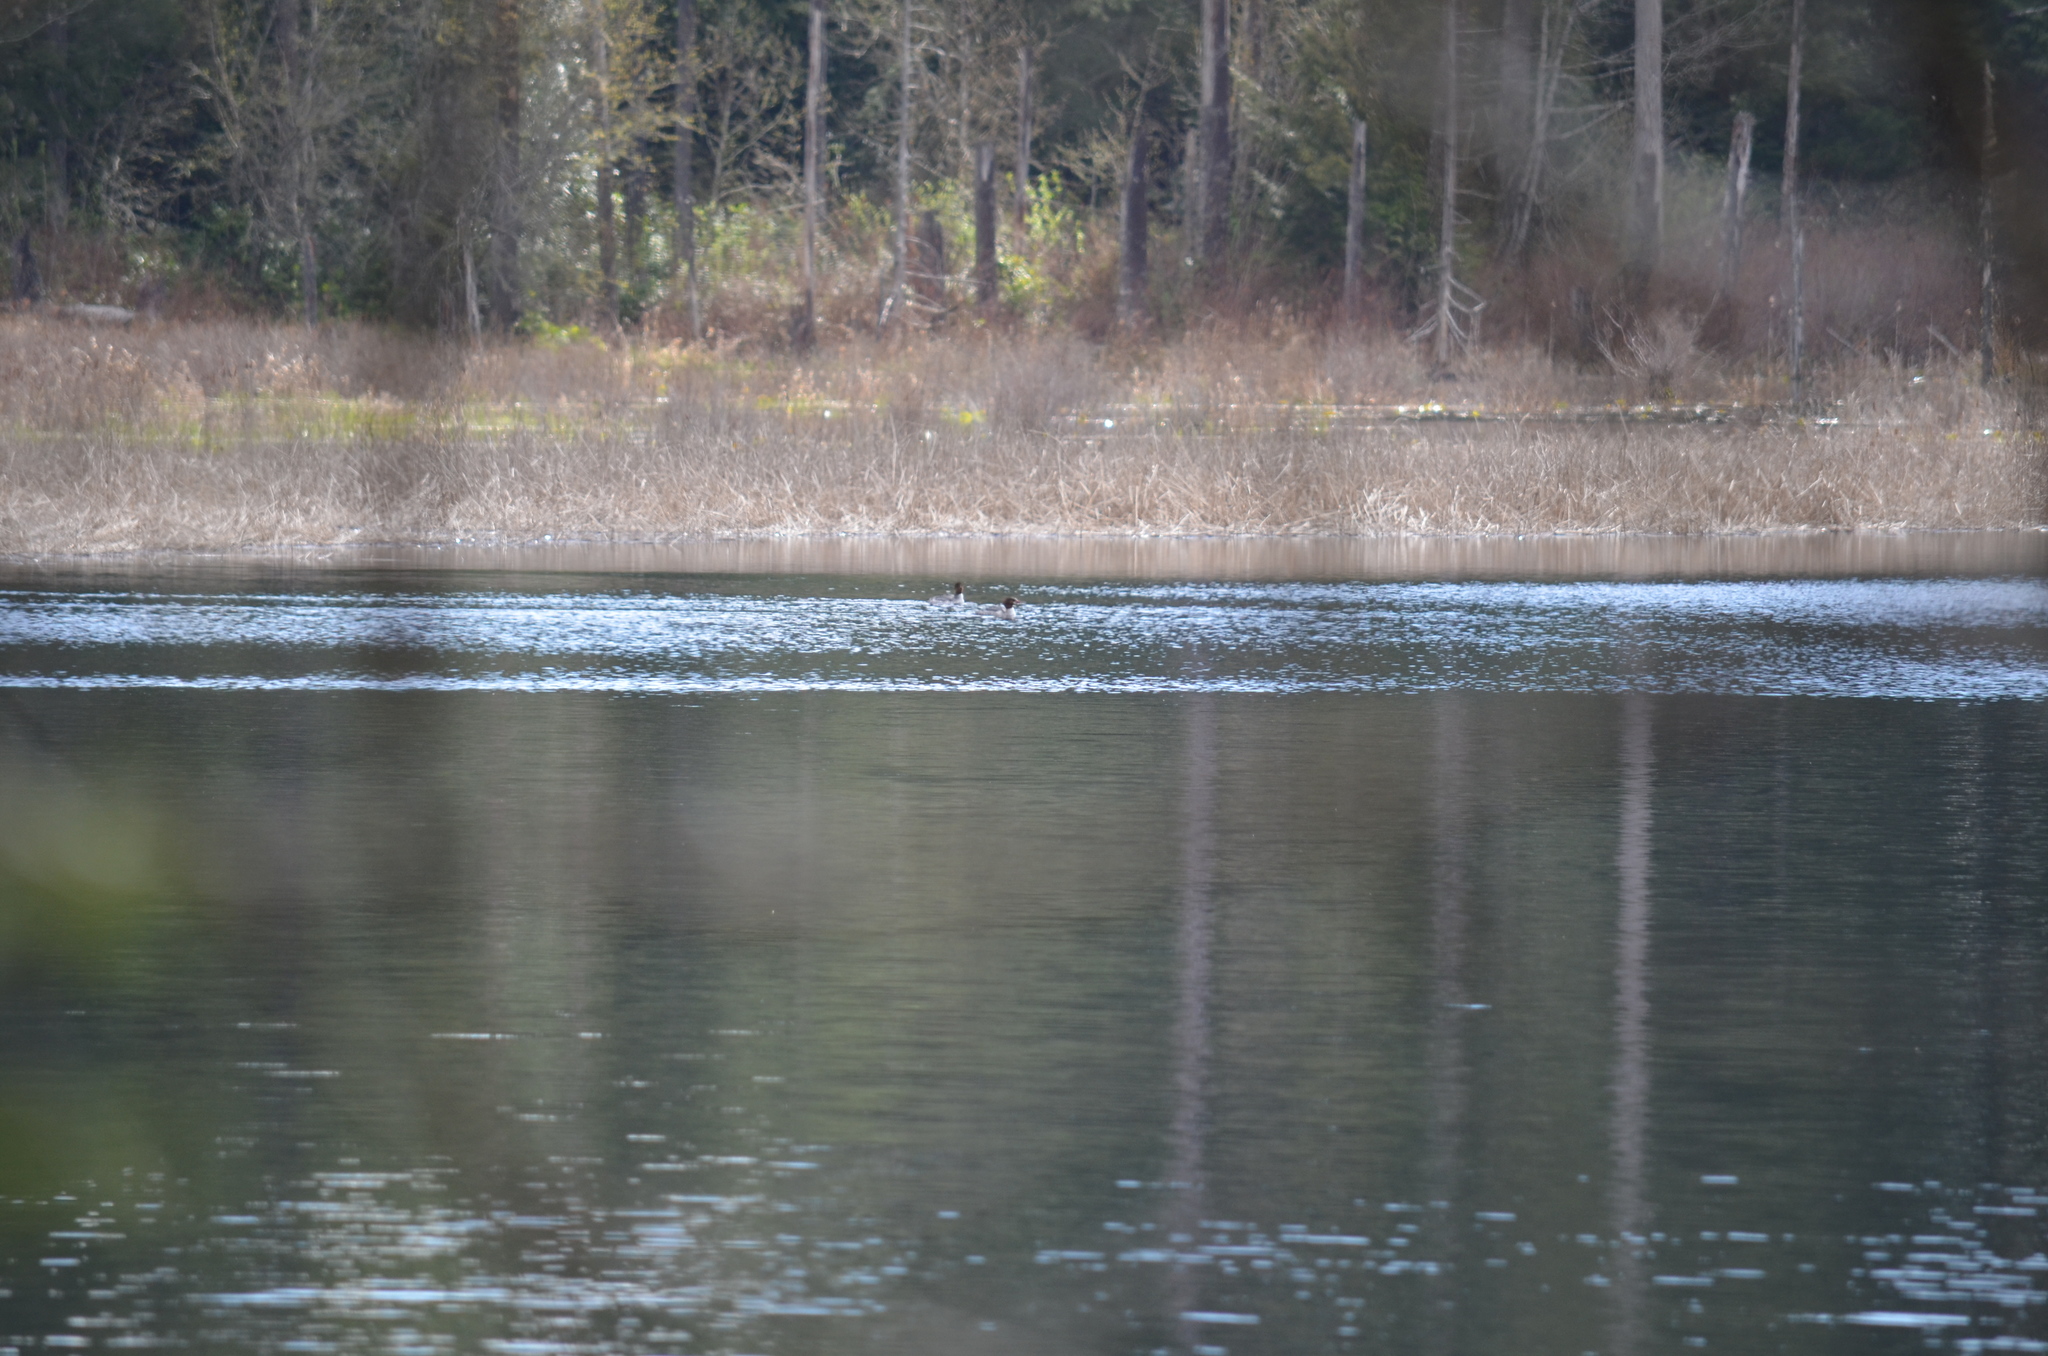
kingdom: Animalia
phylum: Chordata
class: Aves
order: Anseriformes
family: Anatidae
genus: Mergus
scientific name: Mergus merganser
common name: Common merganser
